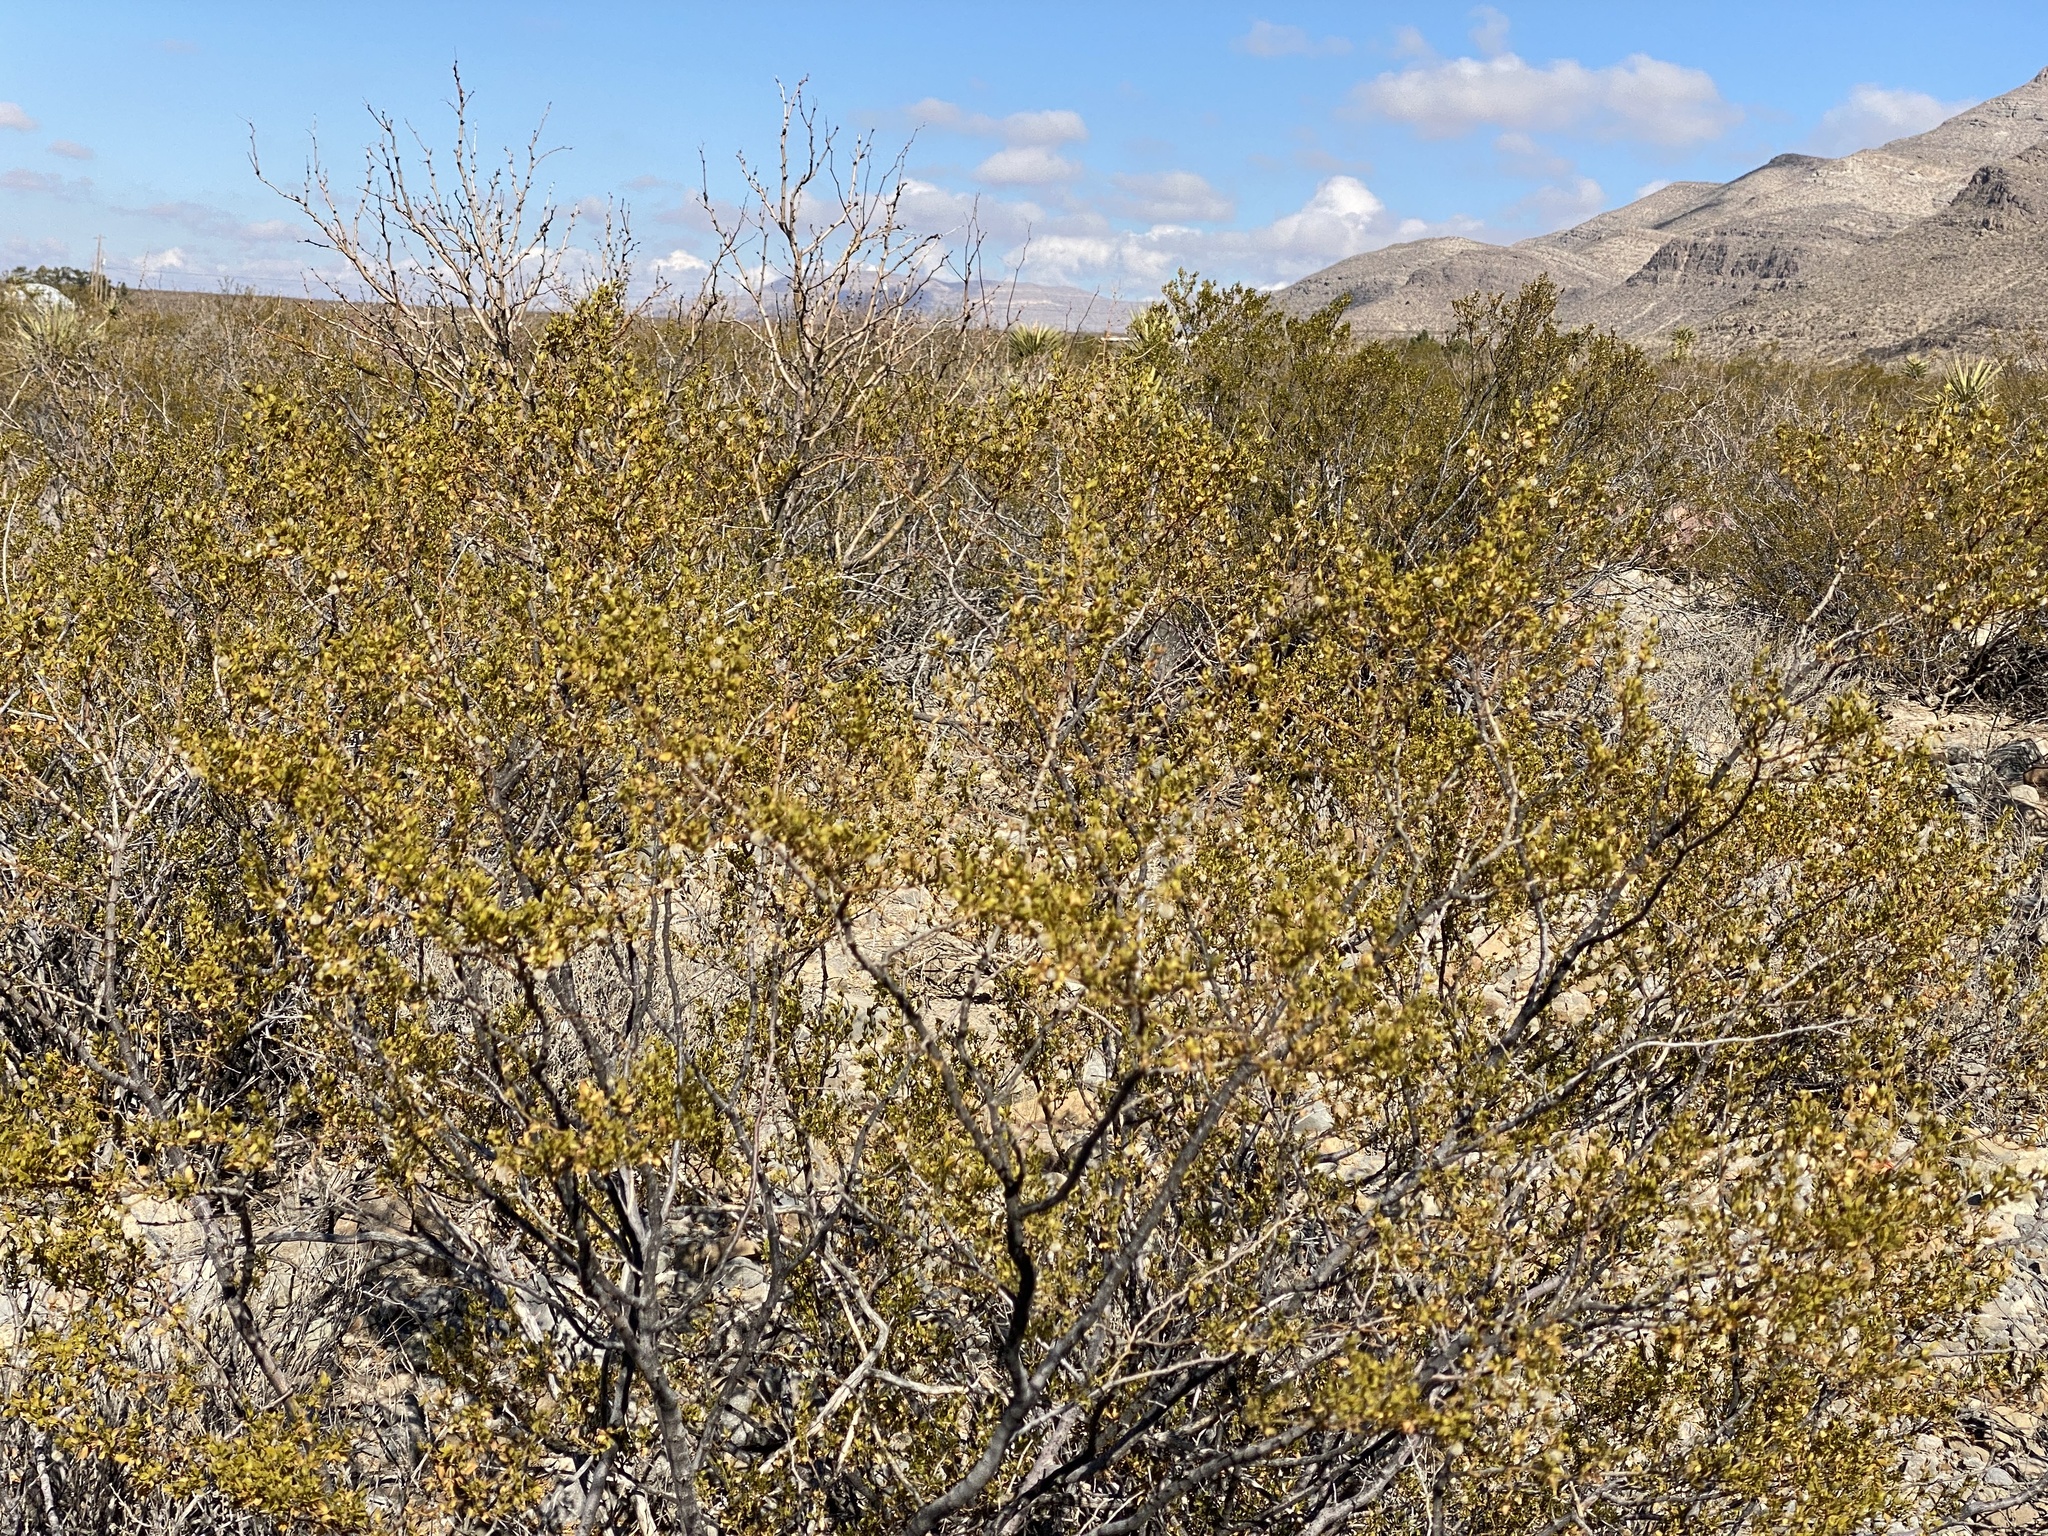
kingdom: Plantae
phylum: Tracheophyta
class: Magnoliopsida
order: Zygophyllales
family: Zygophyllaceae
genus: Larrea
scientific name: Larrea tridentata
